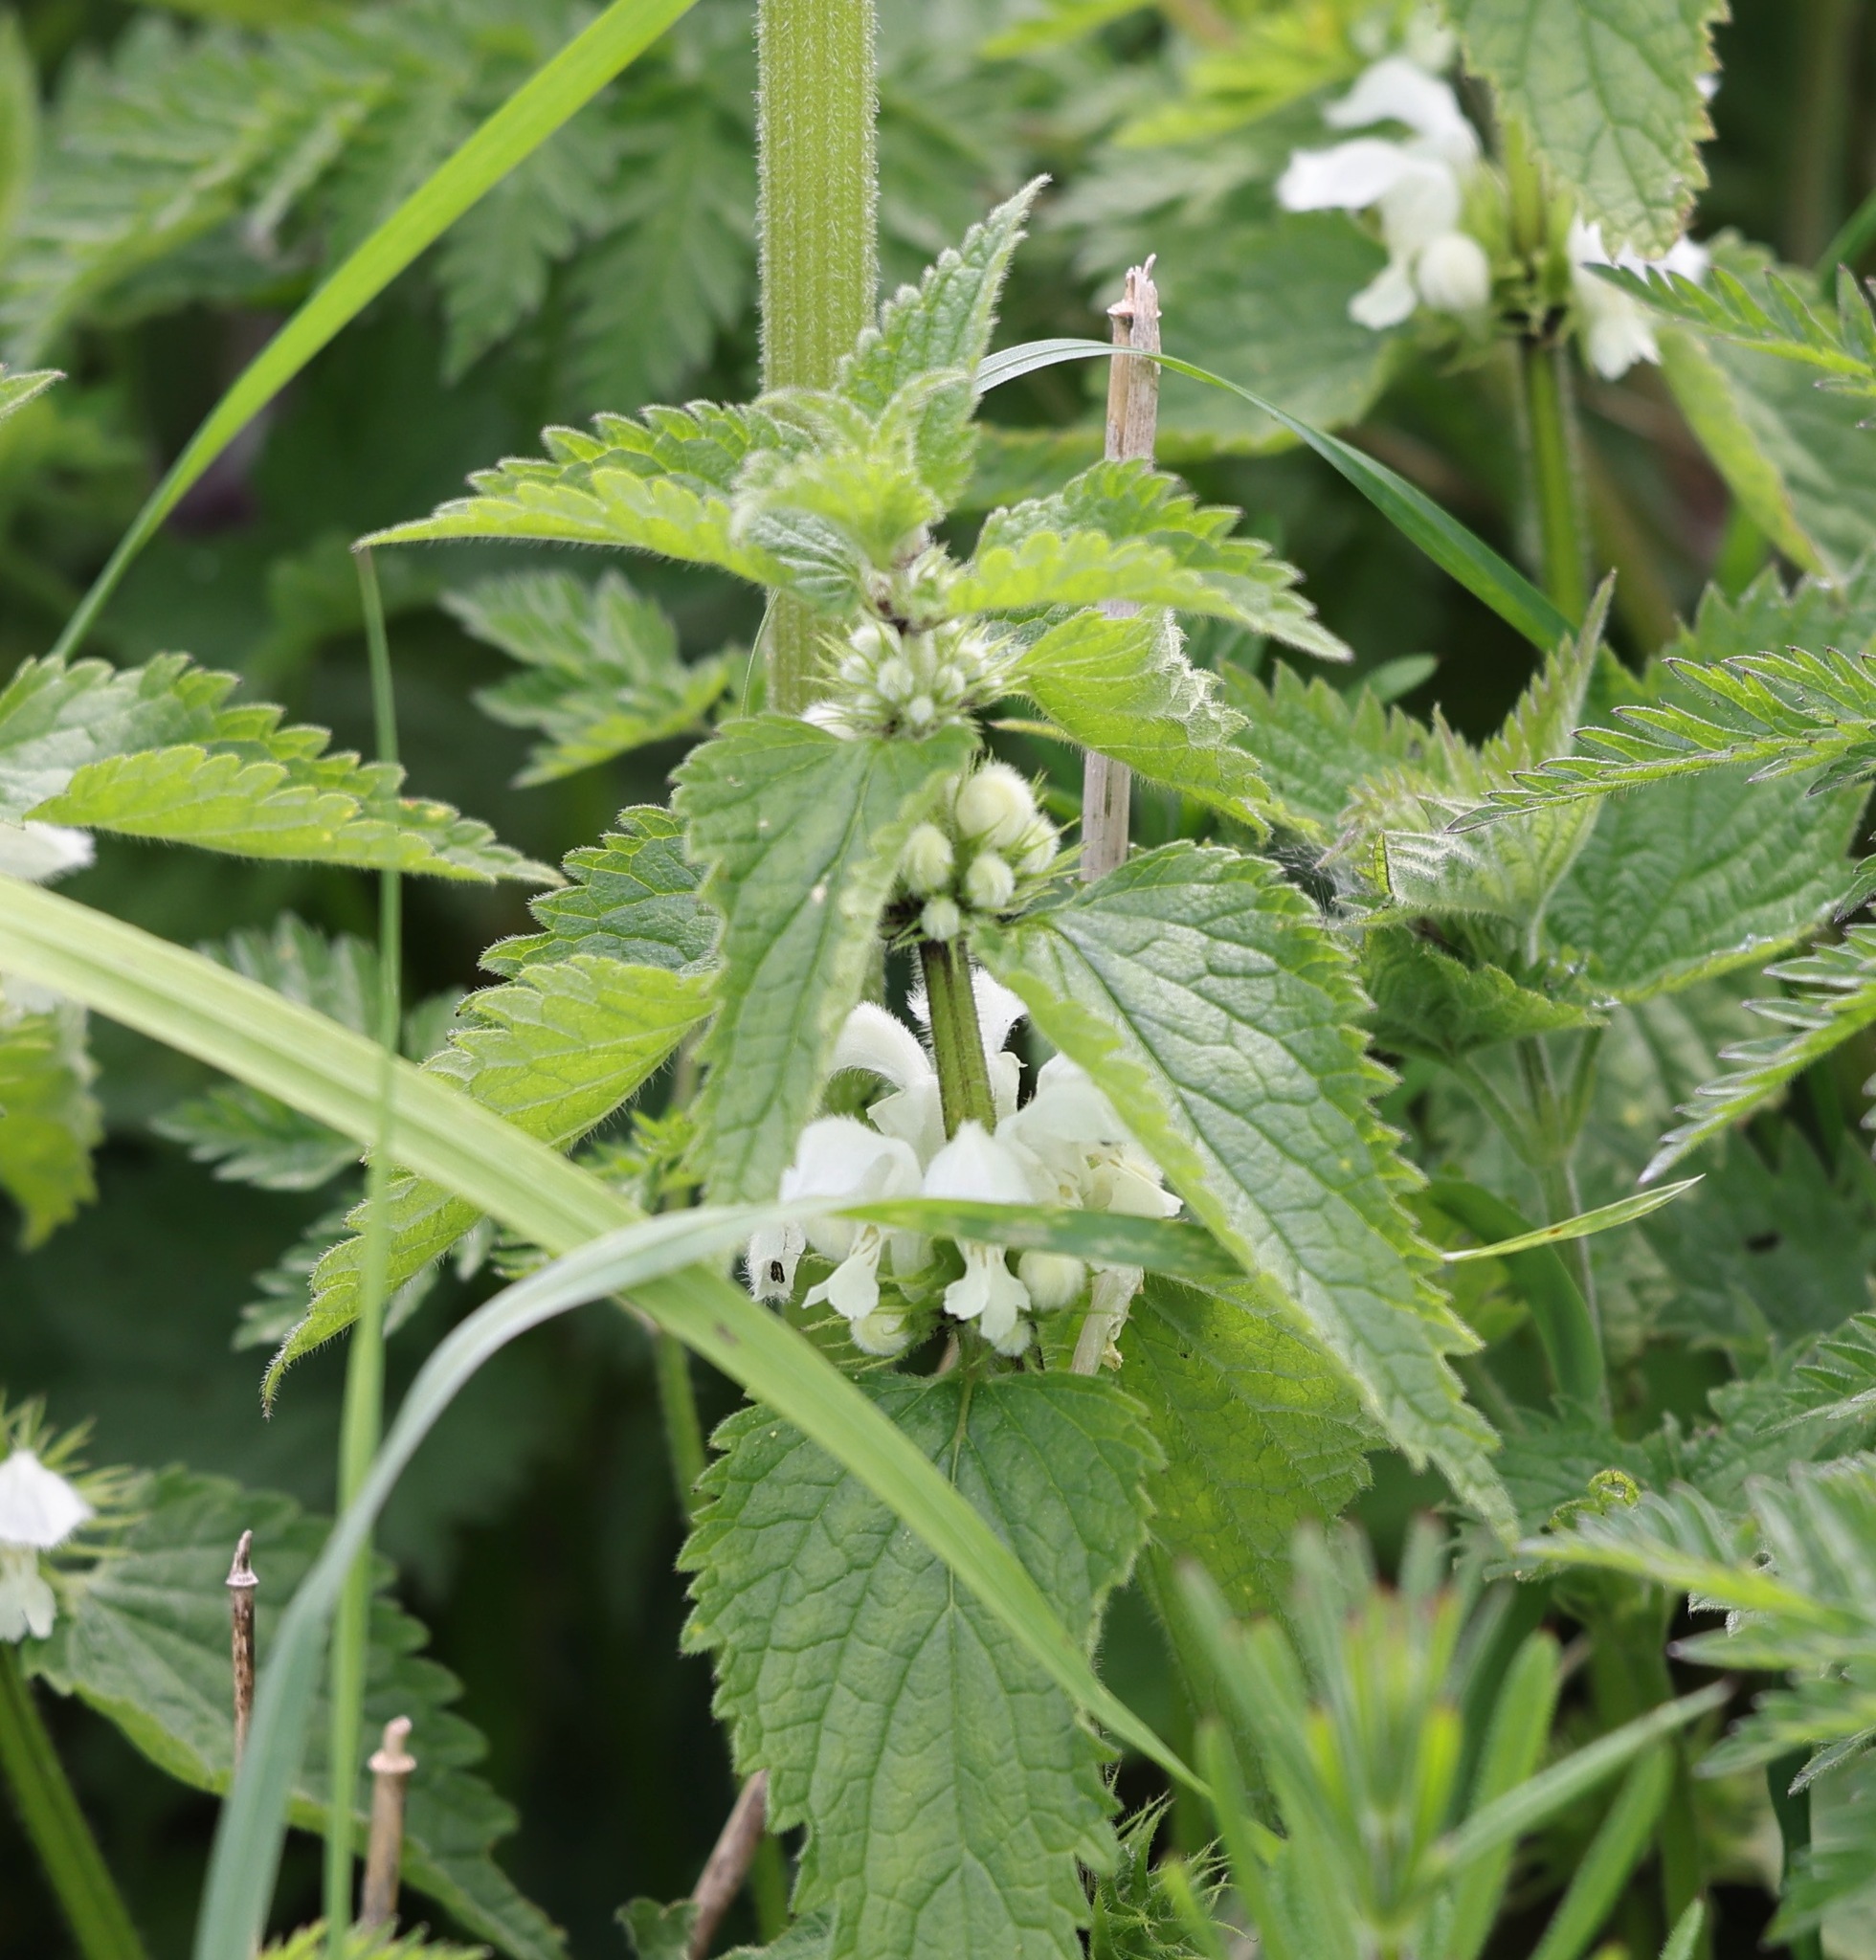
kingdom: Plantae
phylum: Tracheophyta
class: Magnoliopsida
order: Lamiales
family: Lamiaceae
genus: Lamium
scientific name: Lamium album
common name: White dead-nettle
